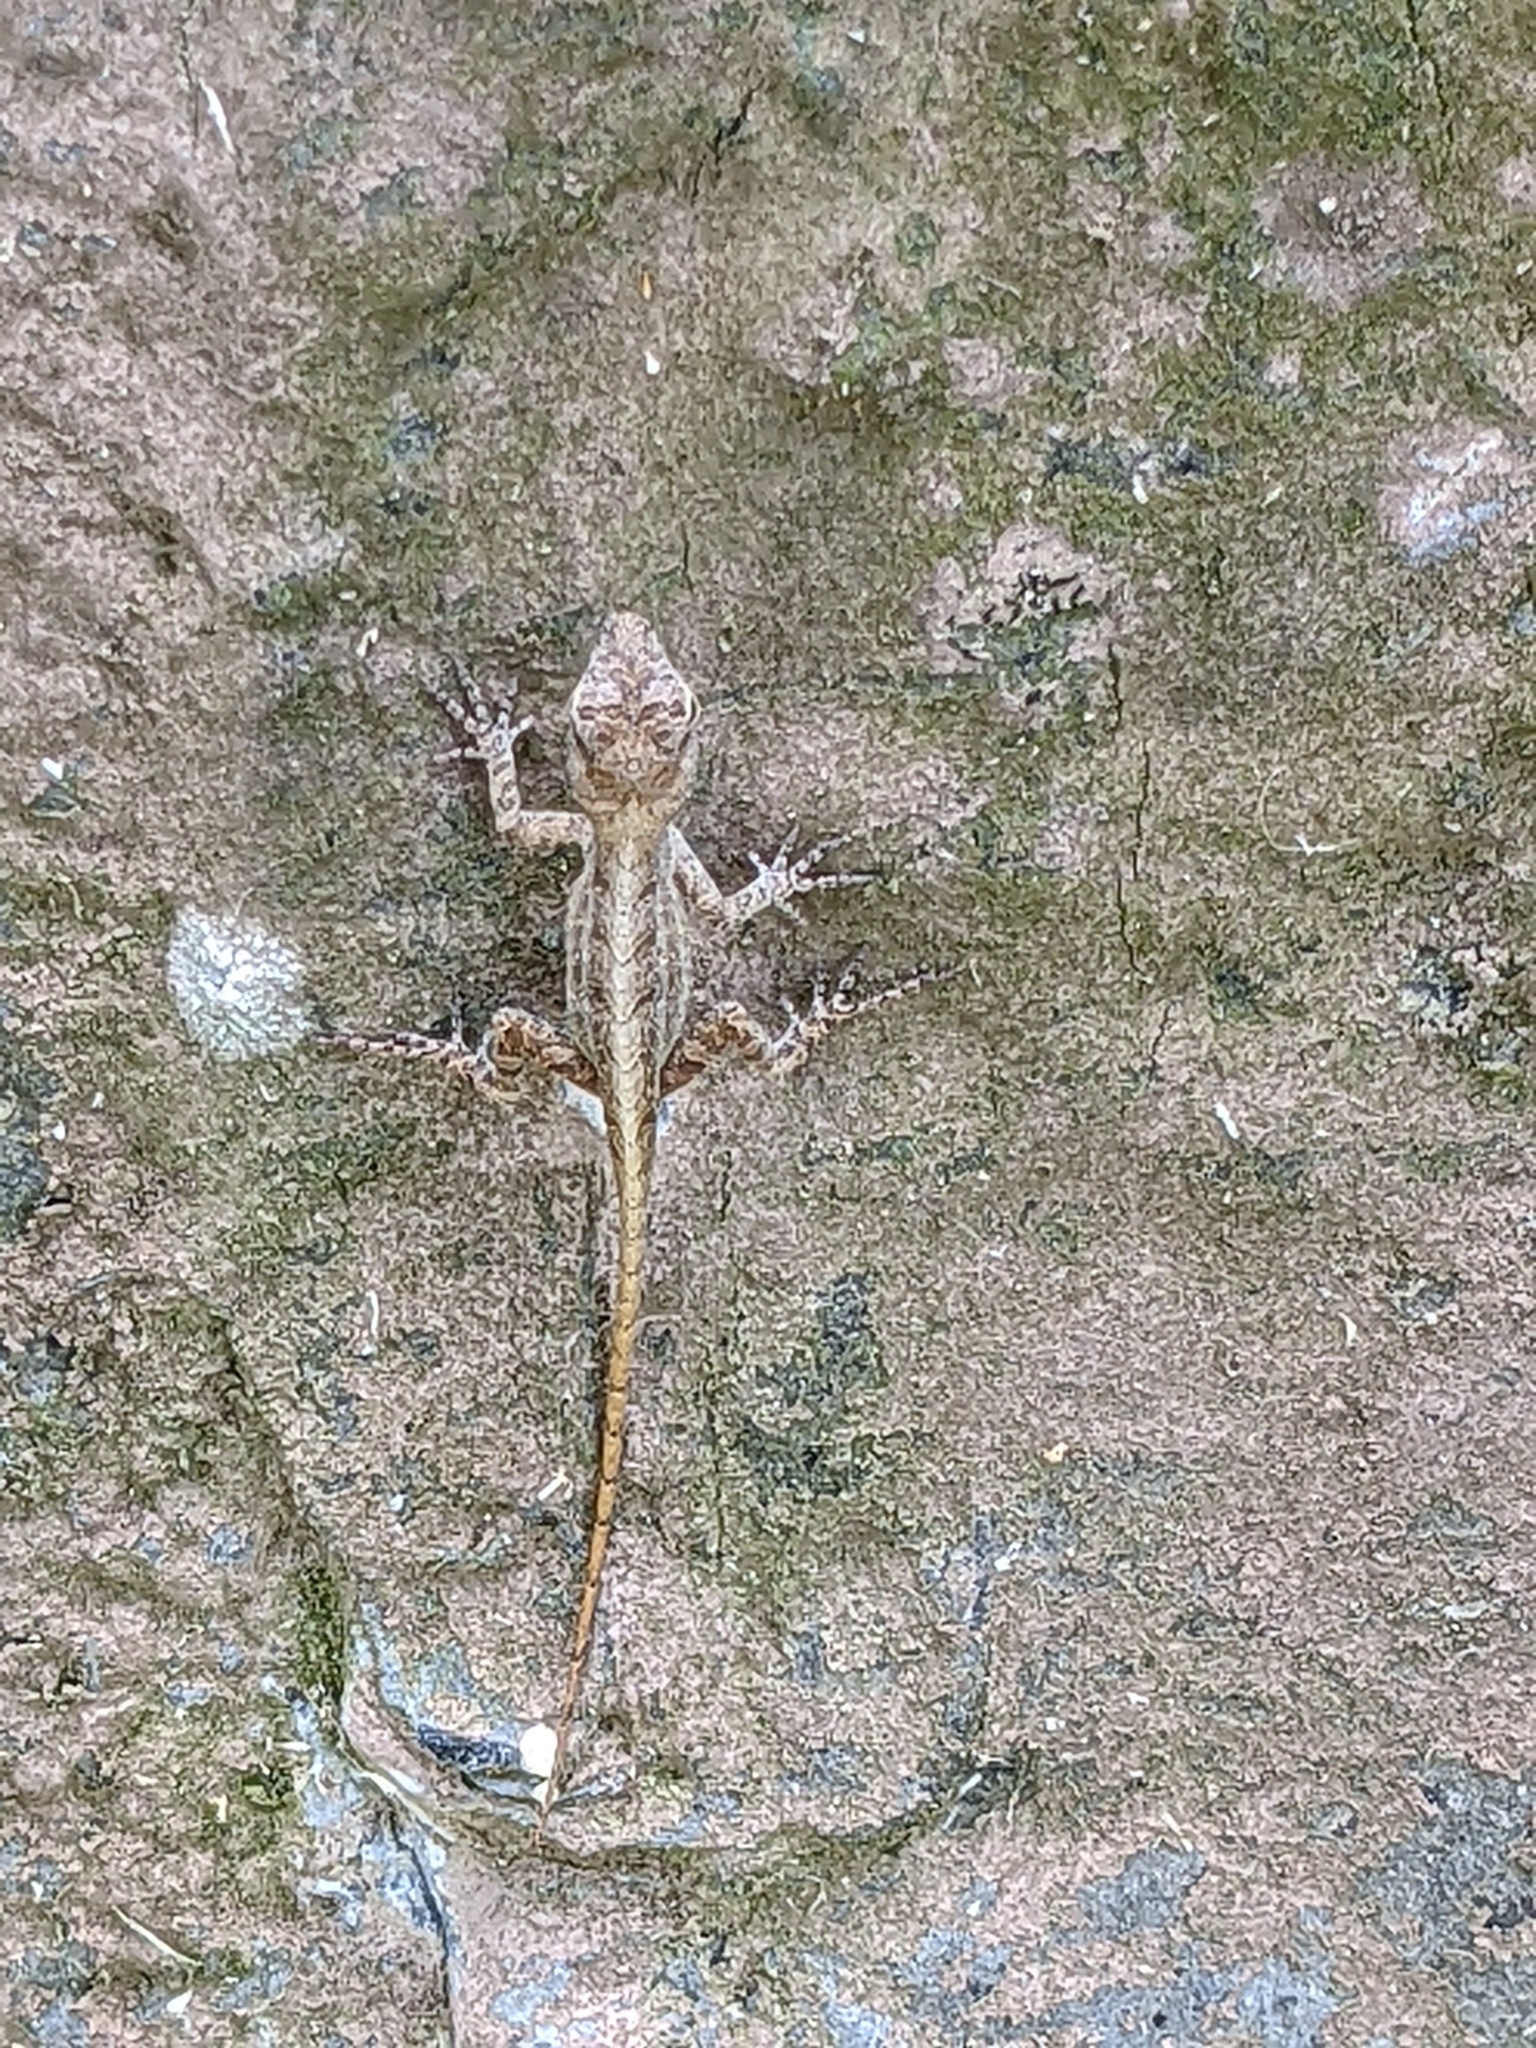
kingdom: Animalia
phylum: Chordata
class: Squamata
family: Dactyloidae
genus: Anolis
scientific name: Anolis sagrei
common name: Brown anole
